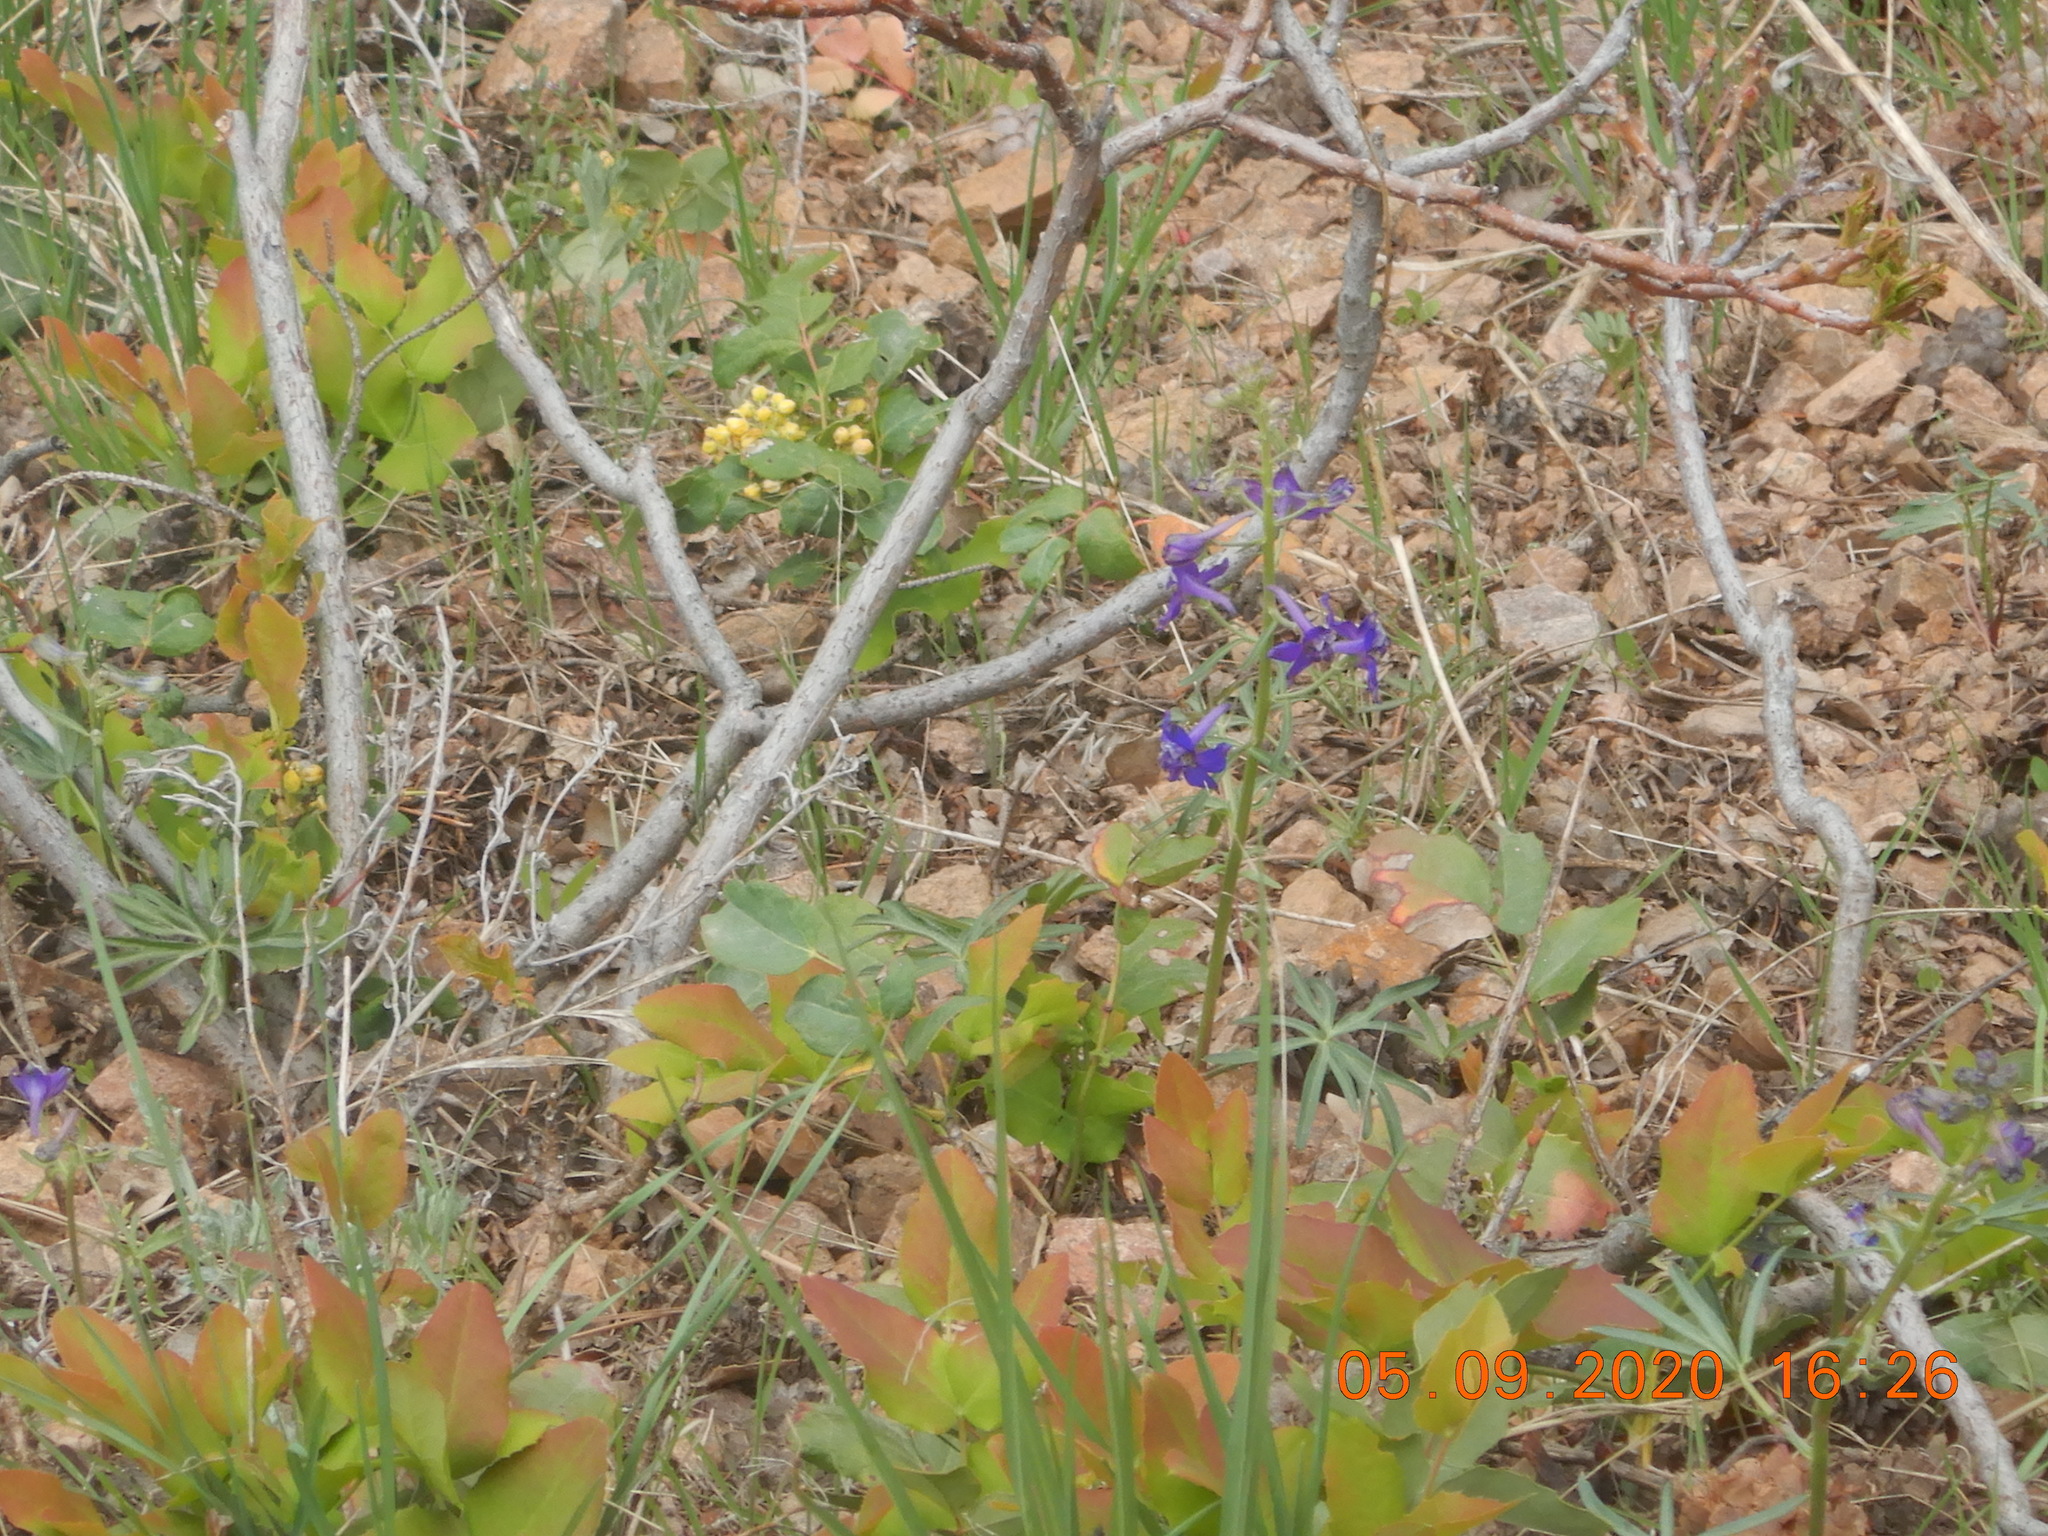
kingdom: Plantae
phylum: Tracheophyta
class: Magnoliopsida
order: Ranunculales
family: Ranunculaceae
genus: Delphinium
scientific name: Delphinium nuttallianum
